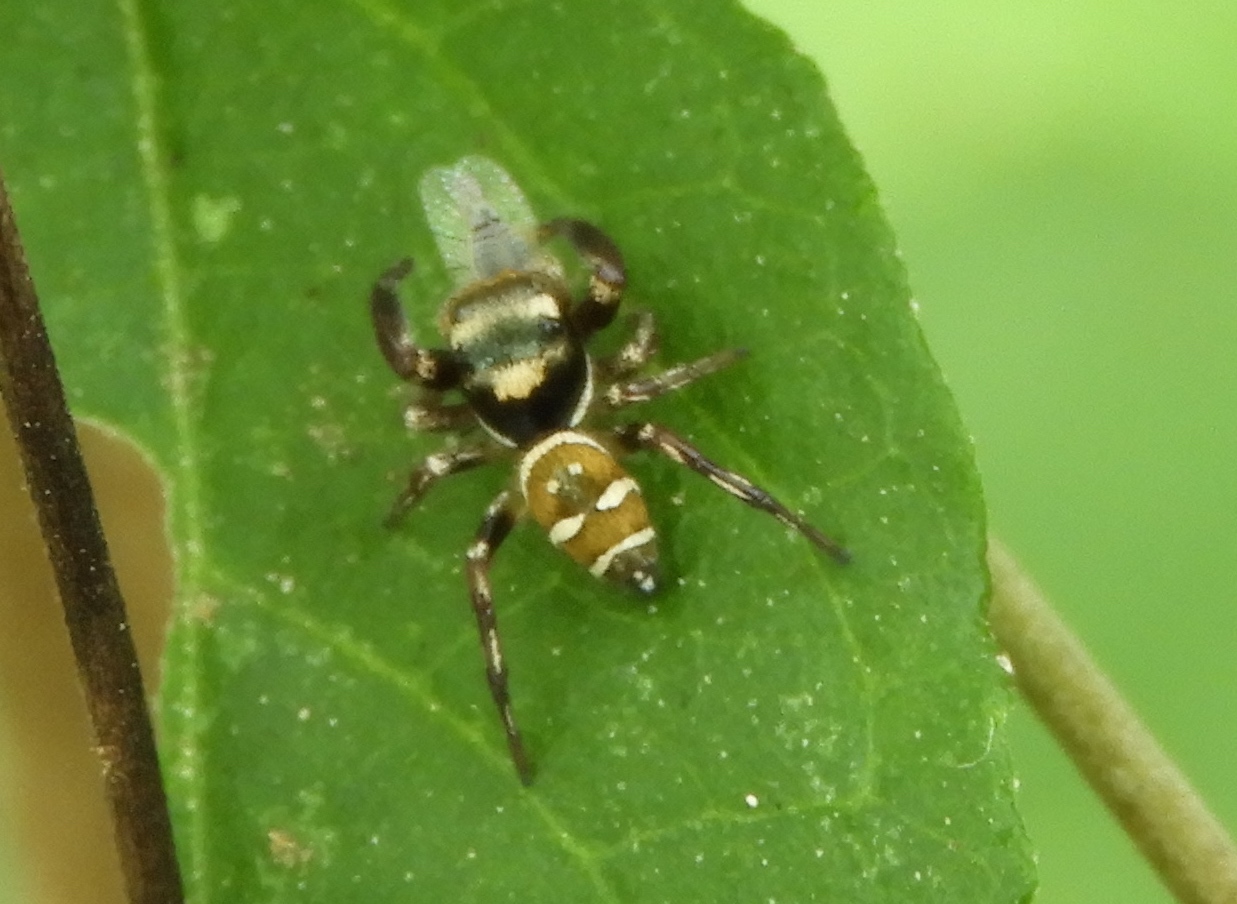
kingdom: Animalia
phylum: Arthropoda
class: Arachnida
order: Araneae
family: Salticidae
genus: Sassacus
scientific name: Sassacus
